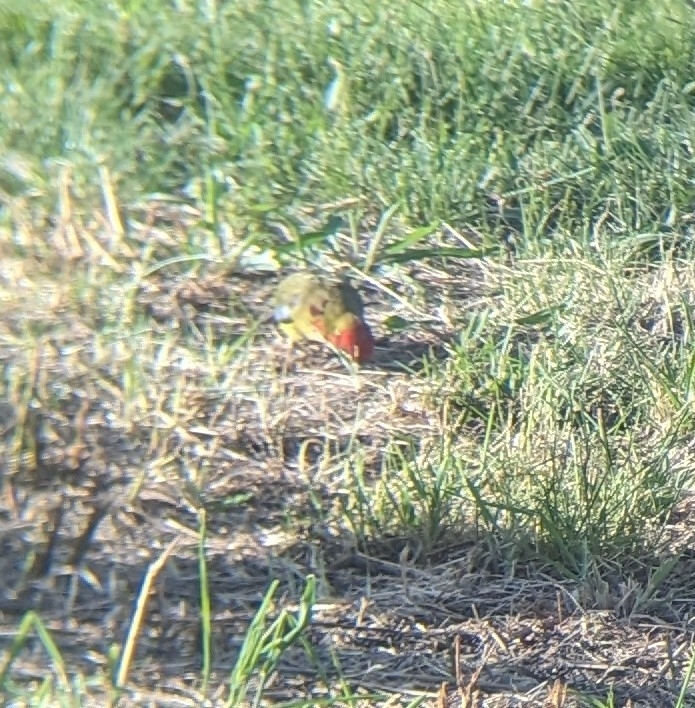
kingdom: Animalia
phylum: Chordata
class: Aves
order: Psittaciformes
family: Psittacidae
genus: Platycercus
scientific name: Platycercus elegans
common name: Crimson rosella
